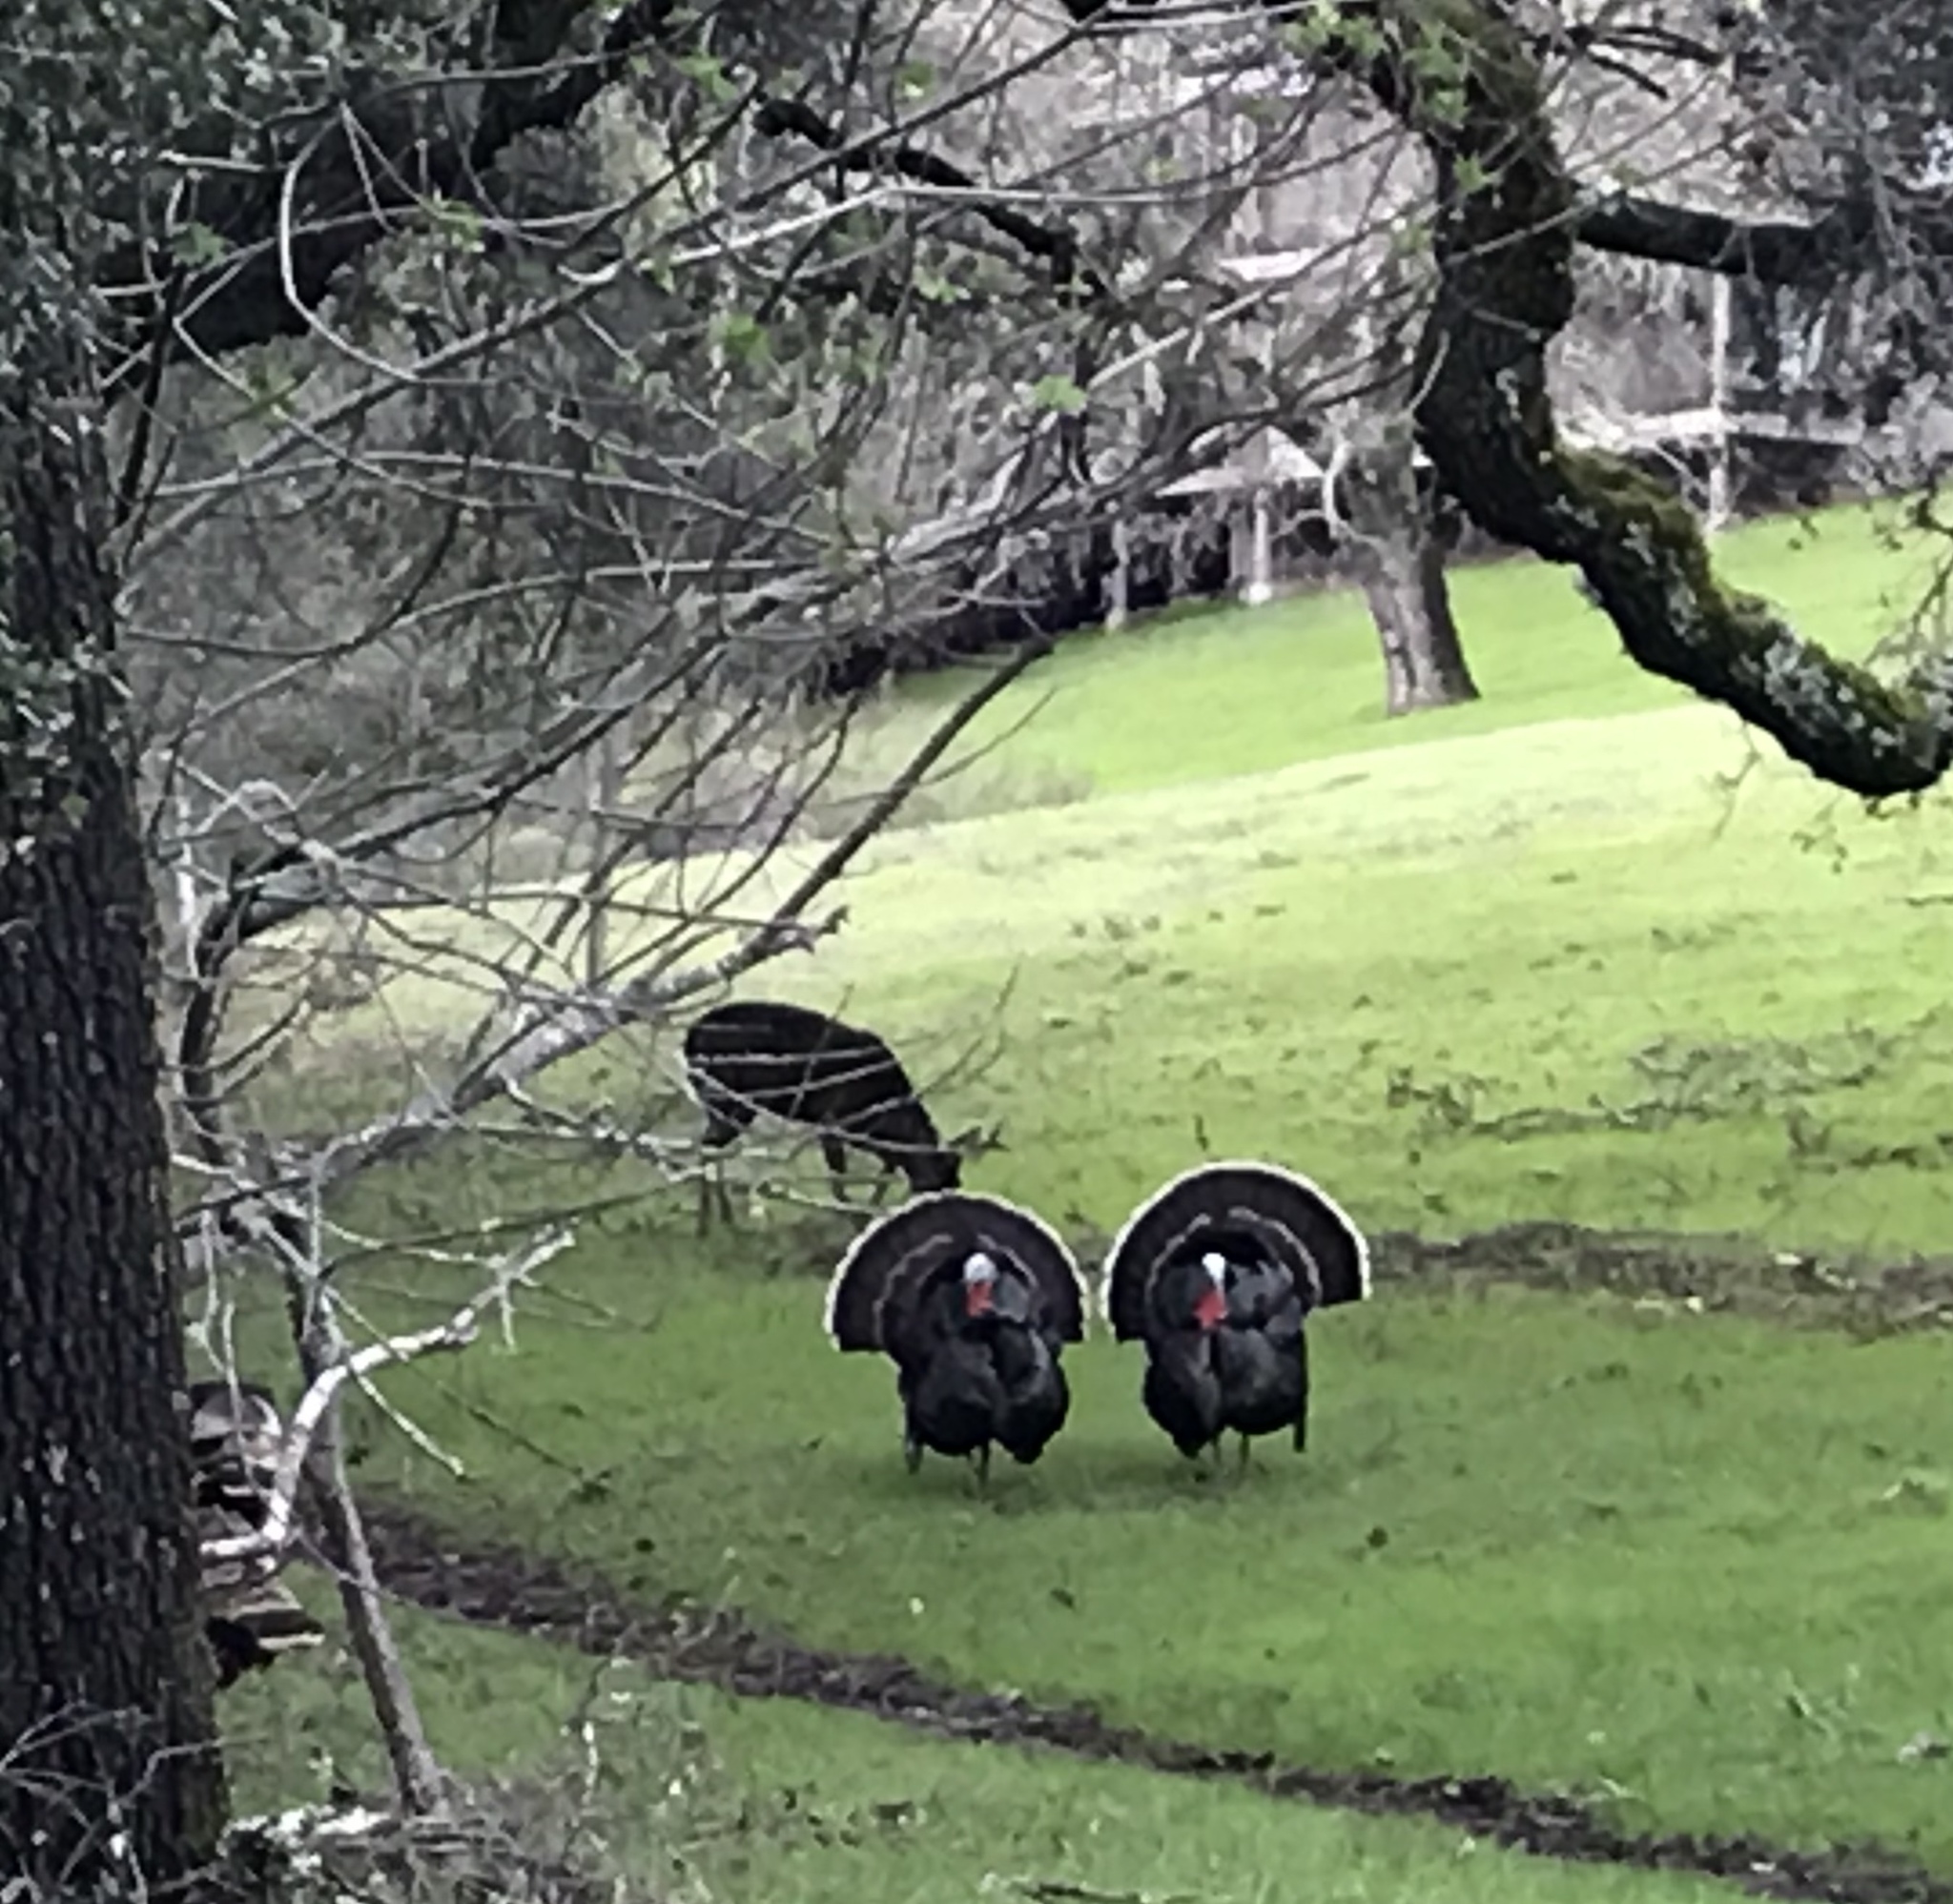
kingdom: Animalia
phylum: Chordata
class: Aves
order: Galliformes
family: Phasianidae
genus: Meleagris
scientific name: Meleagris gallopavo
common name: Wild turkey
